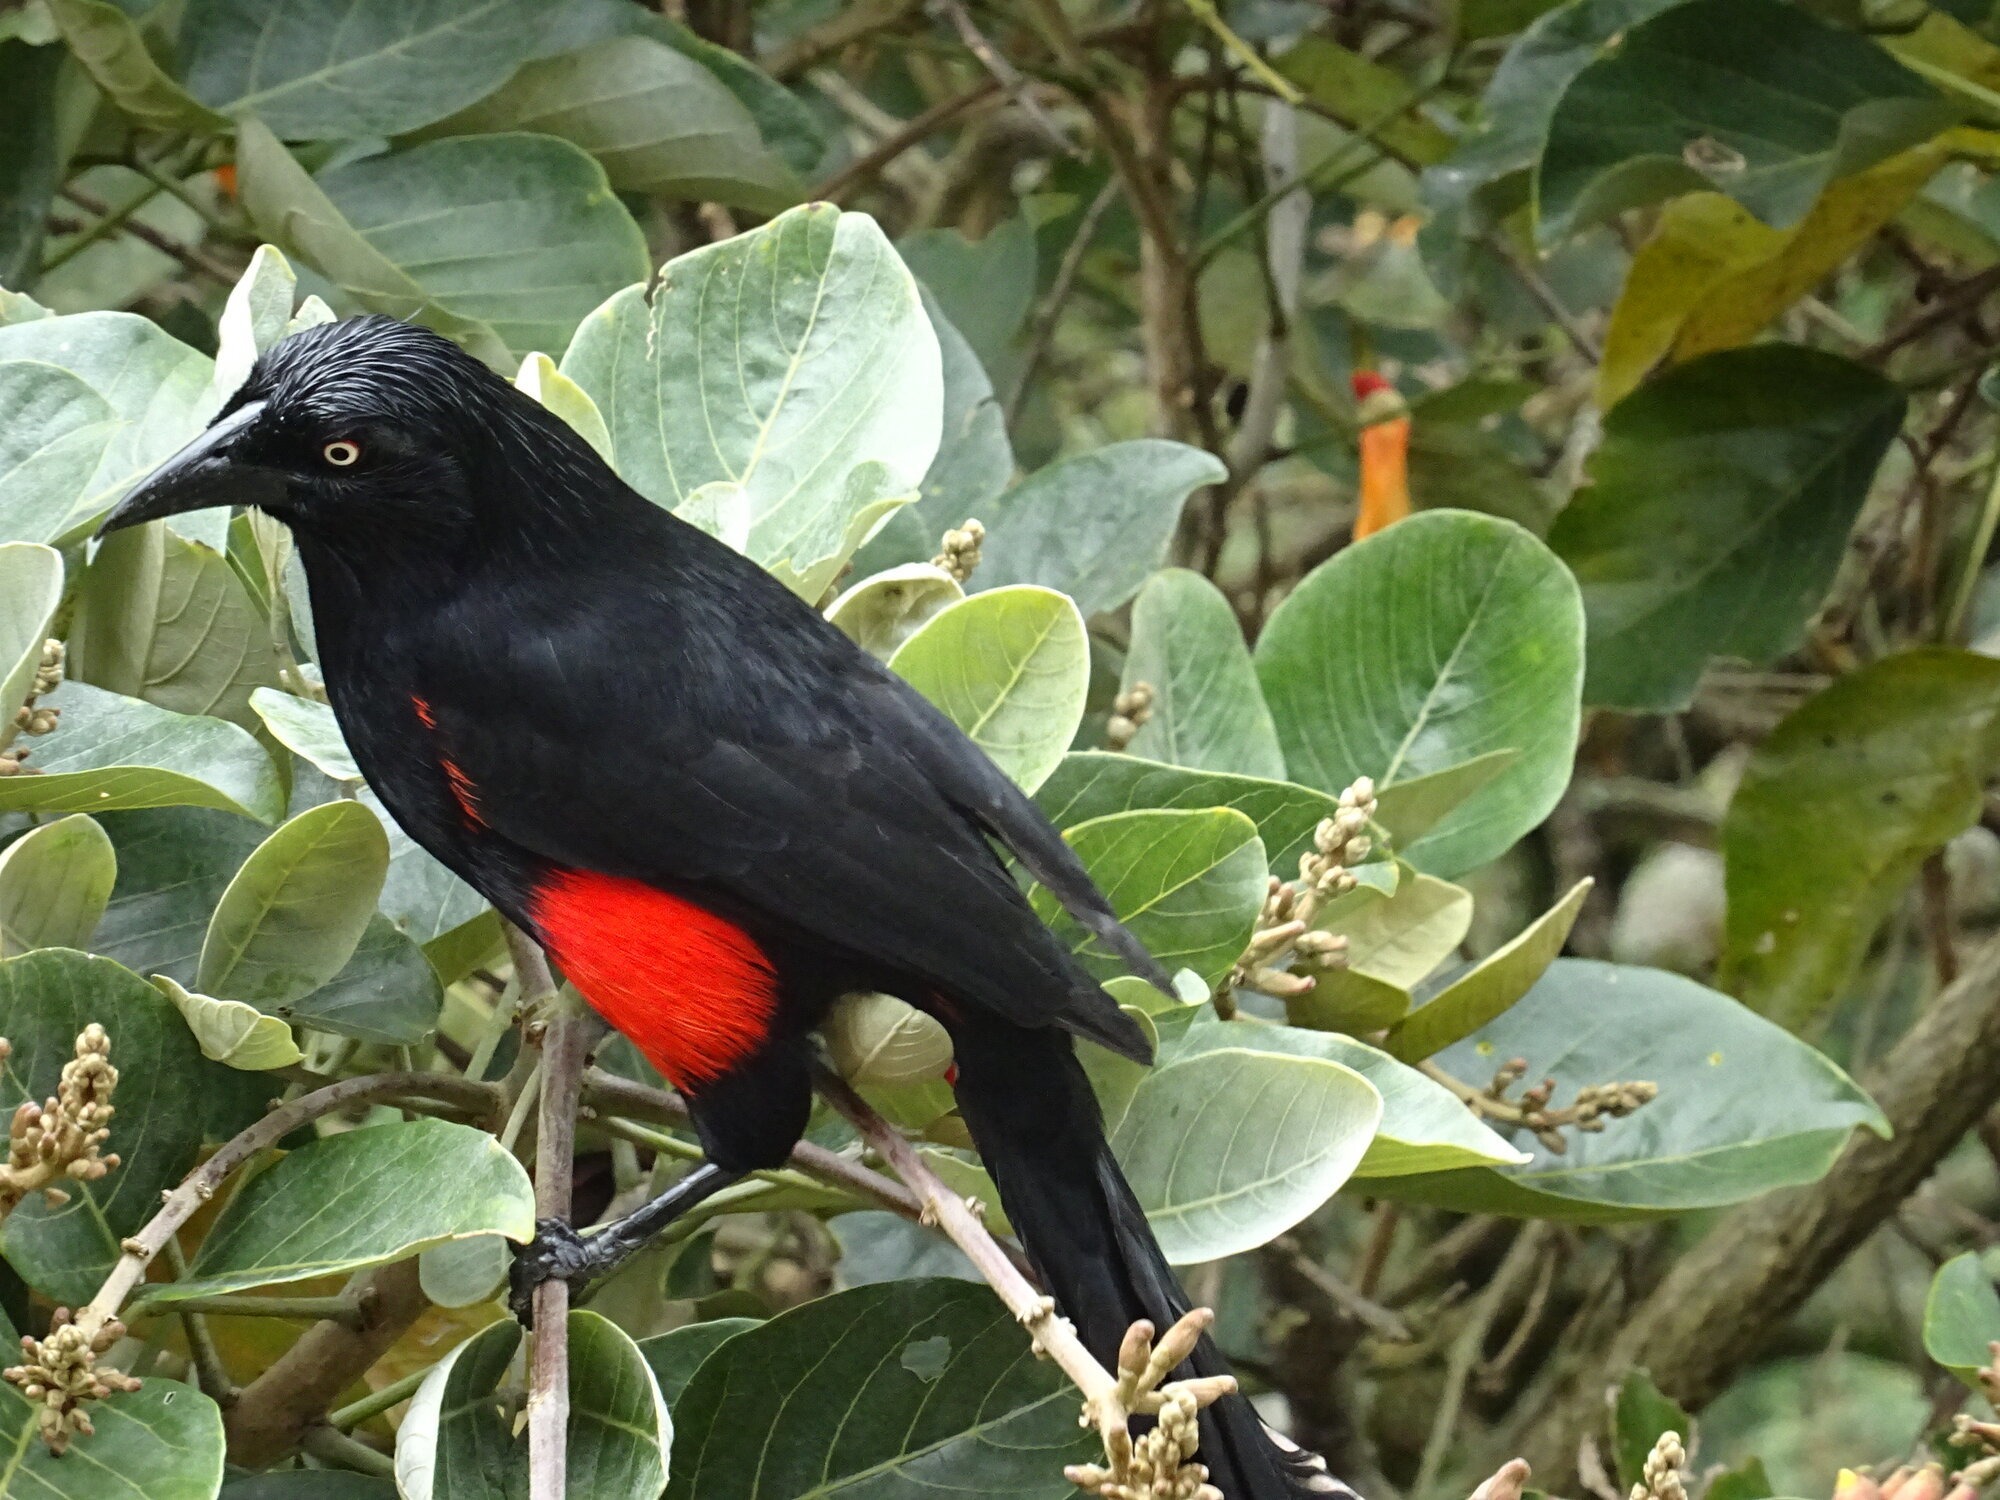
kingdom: Animalia
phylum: Chordata
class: Aves
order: Passeriformes
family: Icteridae
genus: Hypopyrrhus
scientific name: Hypopyrrhus pyrohypogaster
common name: Red-bellied grackle
